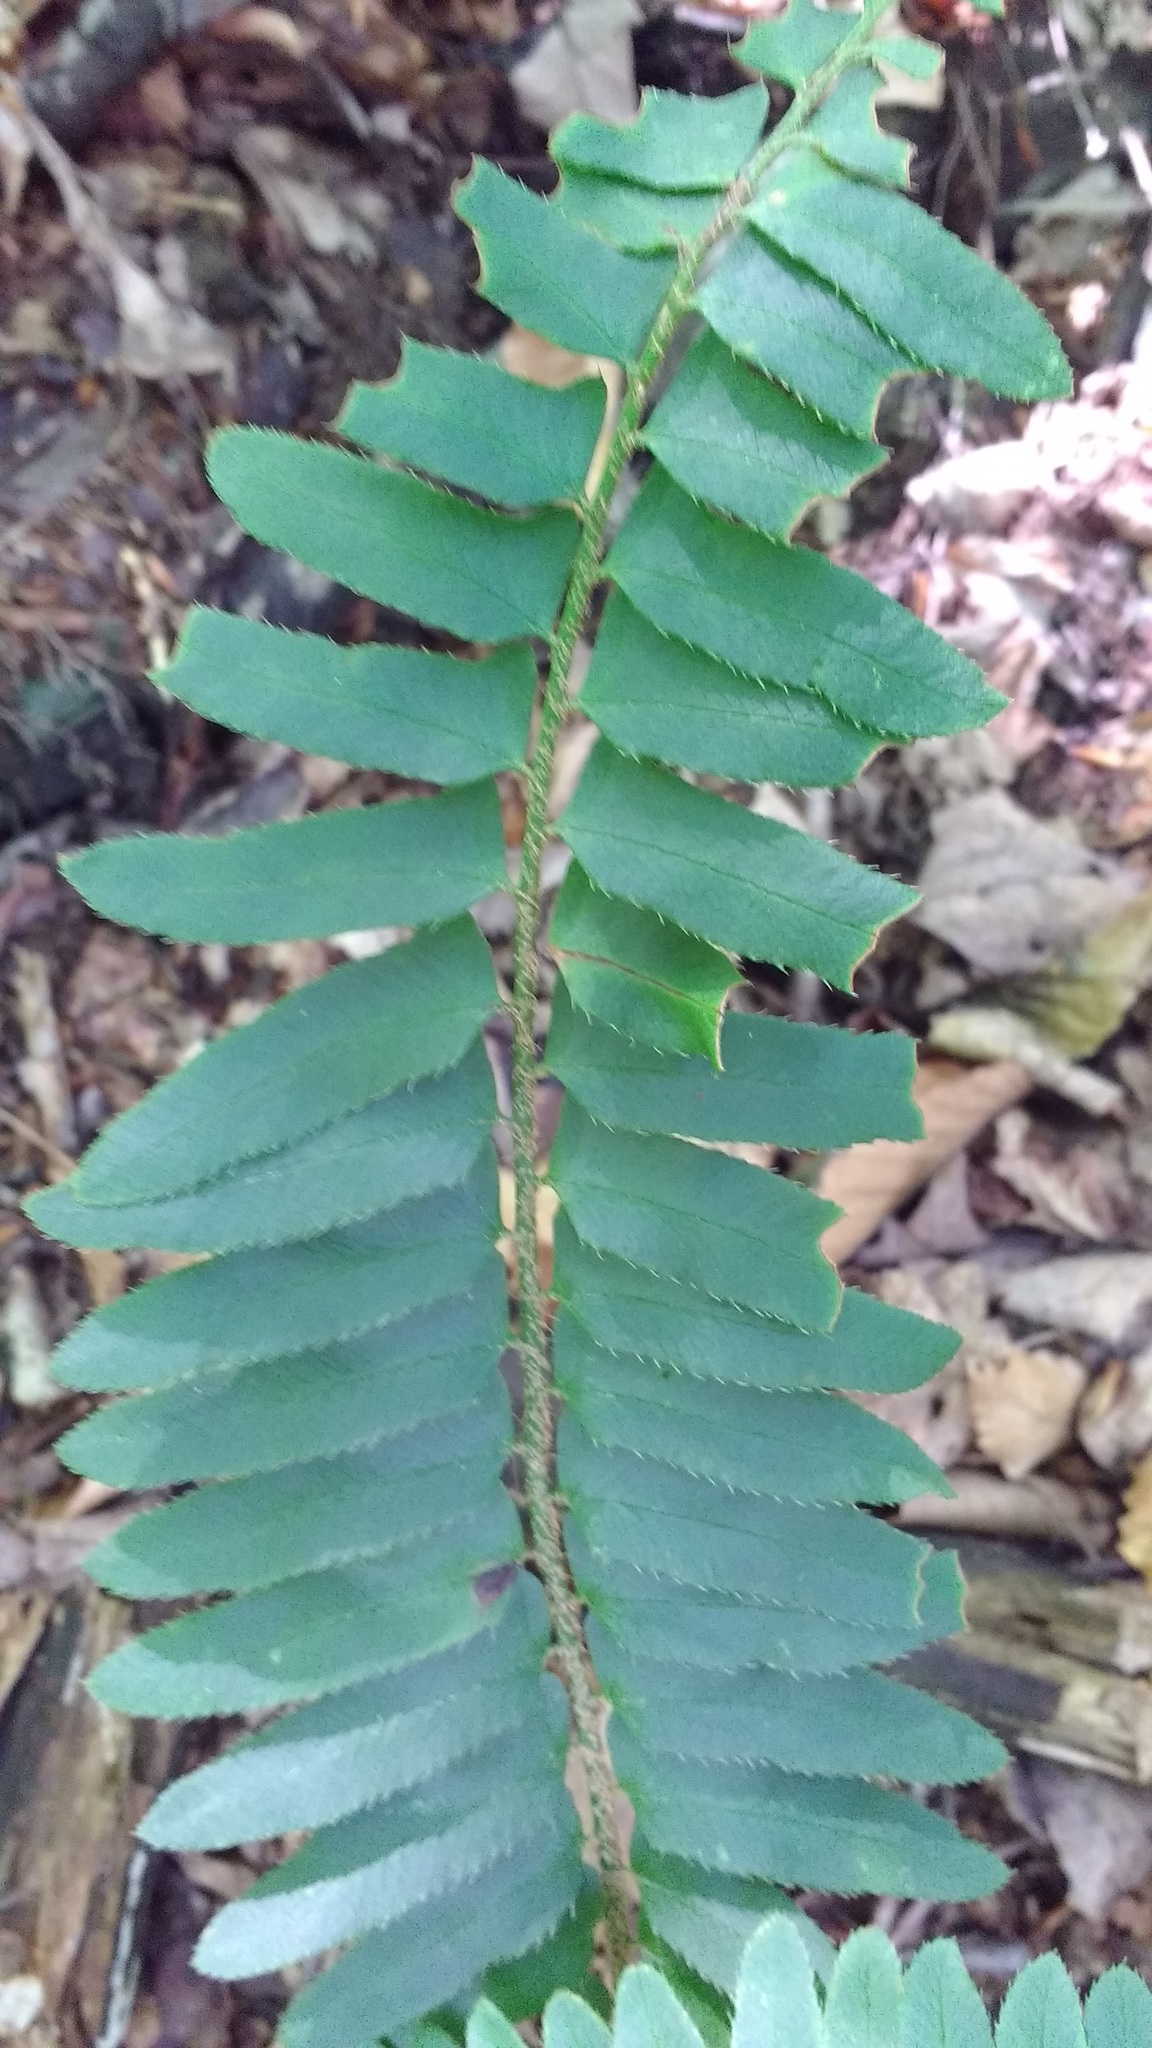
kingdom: Plantae
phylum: Tracheophyta
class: Polypodiopsida
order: Polypodiales
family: Dryopteridaceae
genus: Polystichum
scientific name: Polystichum acrostichoides
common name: Christmas fern
